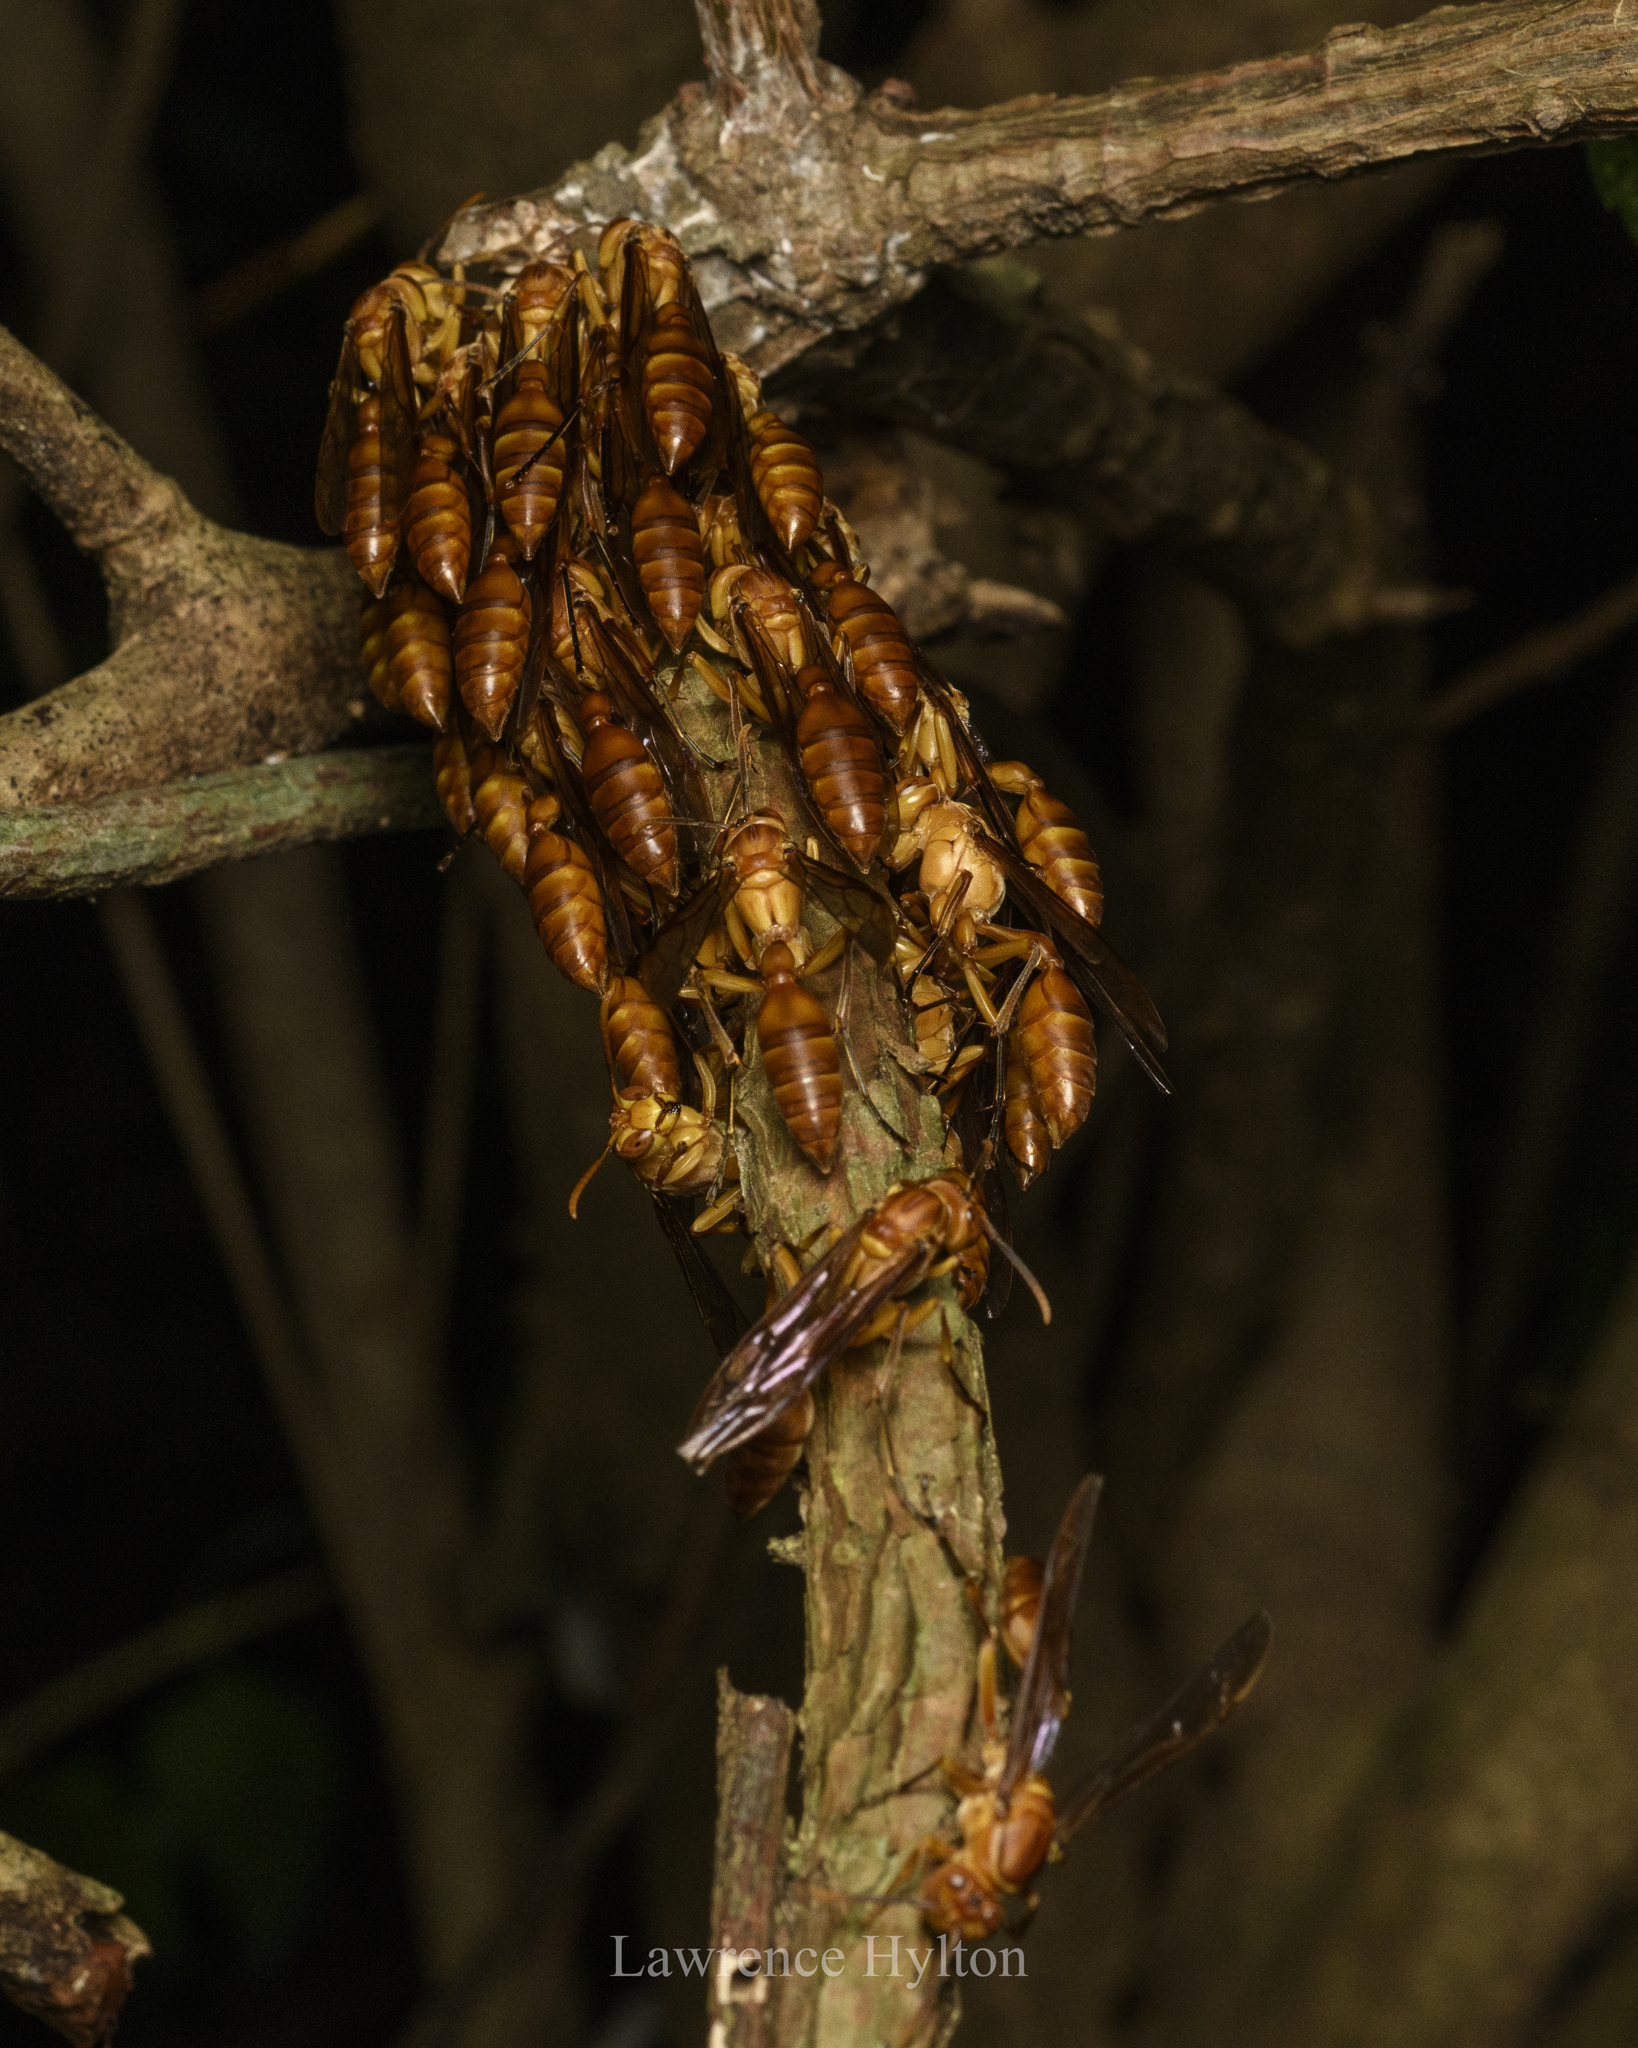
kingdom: Animalia
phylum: Arthropoda
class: Insecta
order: Hymenoptera
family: Vespidae
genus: Parapolybia
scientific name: Parapolybia indica
